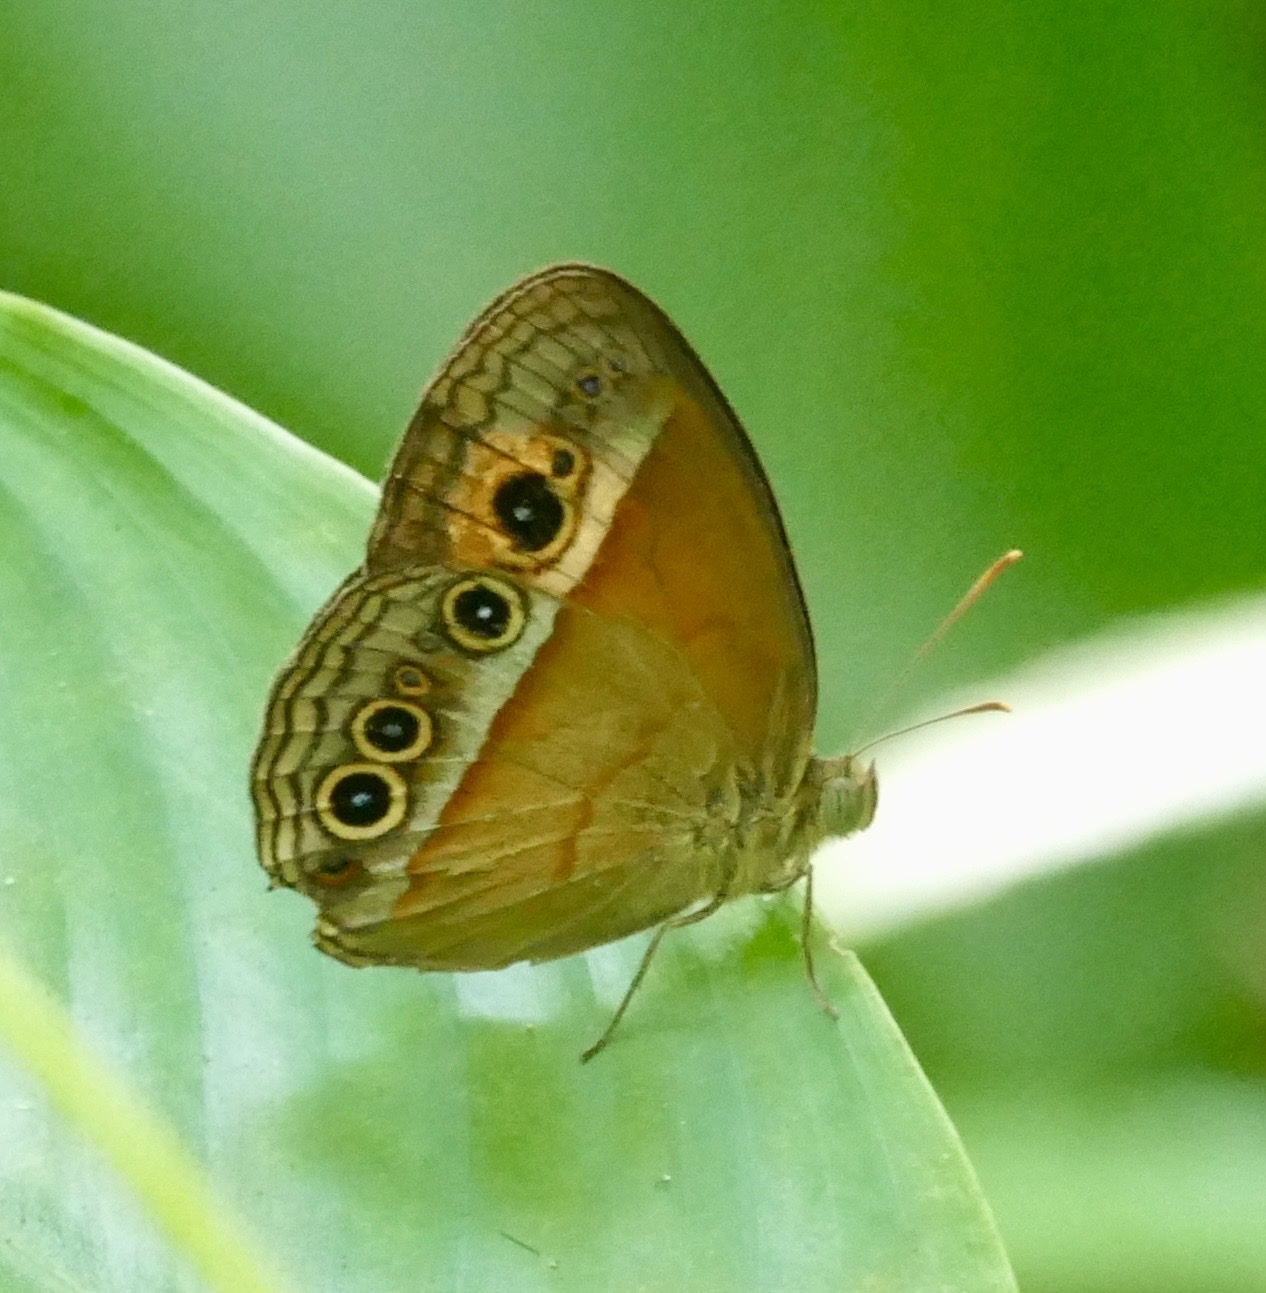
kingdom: Animalia
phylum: Arthropoda
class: Insecta
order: Lepidoptera
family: Nymphalidae
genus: Mycalesis
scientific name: Mycalesis terminus
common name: Orange bushbrown
